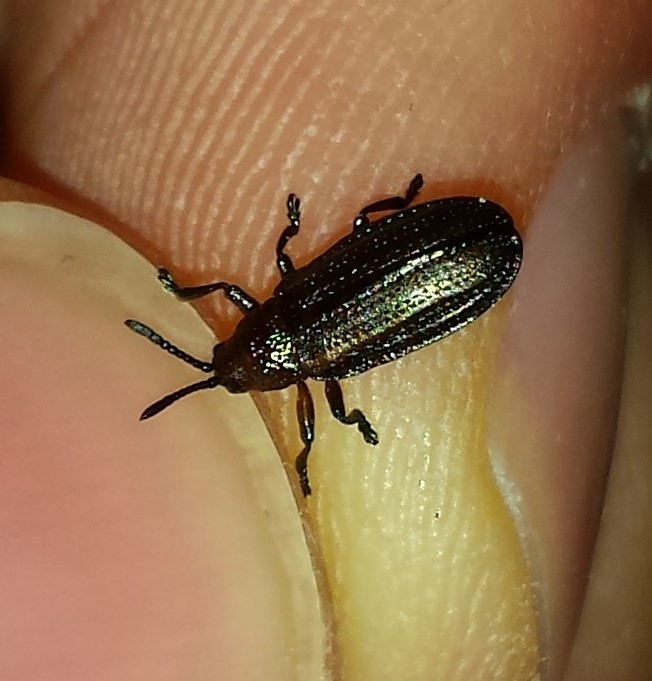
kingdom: Animalia
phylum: Arthropoda
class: Insecta
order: Coleoptera
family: Chrysomelidae
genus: Microrhopala
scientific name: Microrhopala vittata
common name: Goldenrod leaf miner beetle
